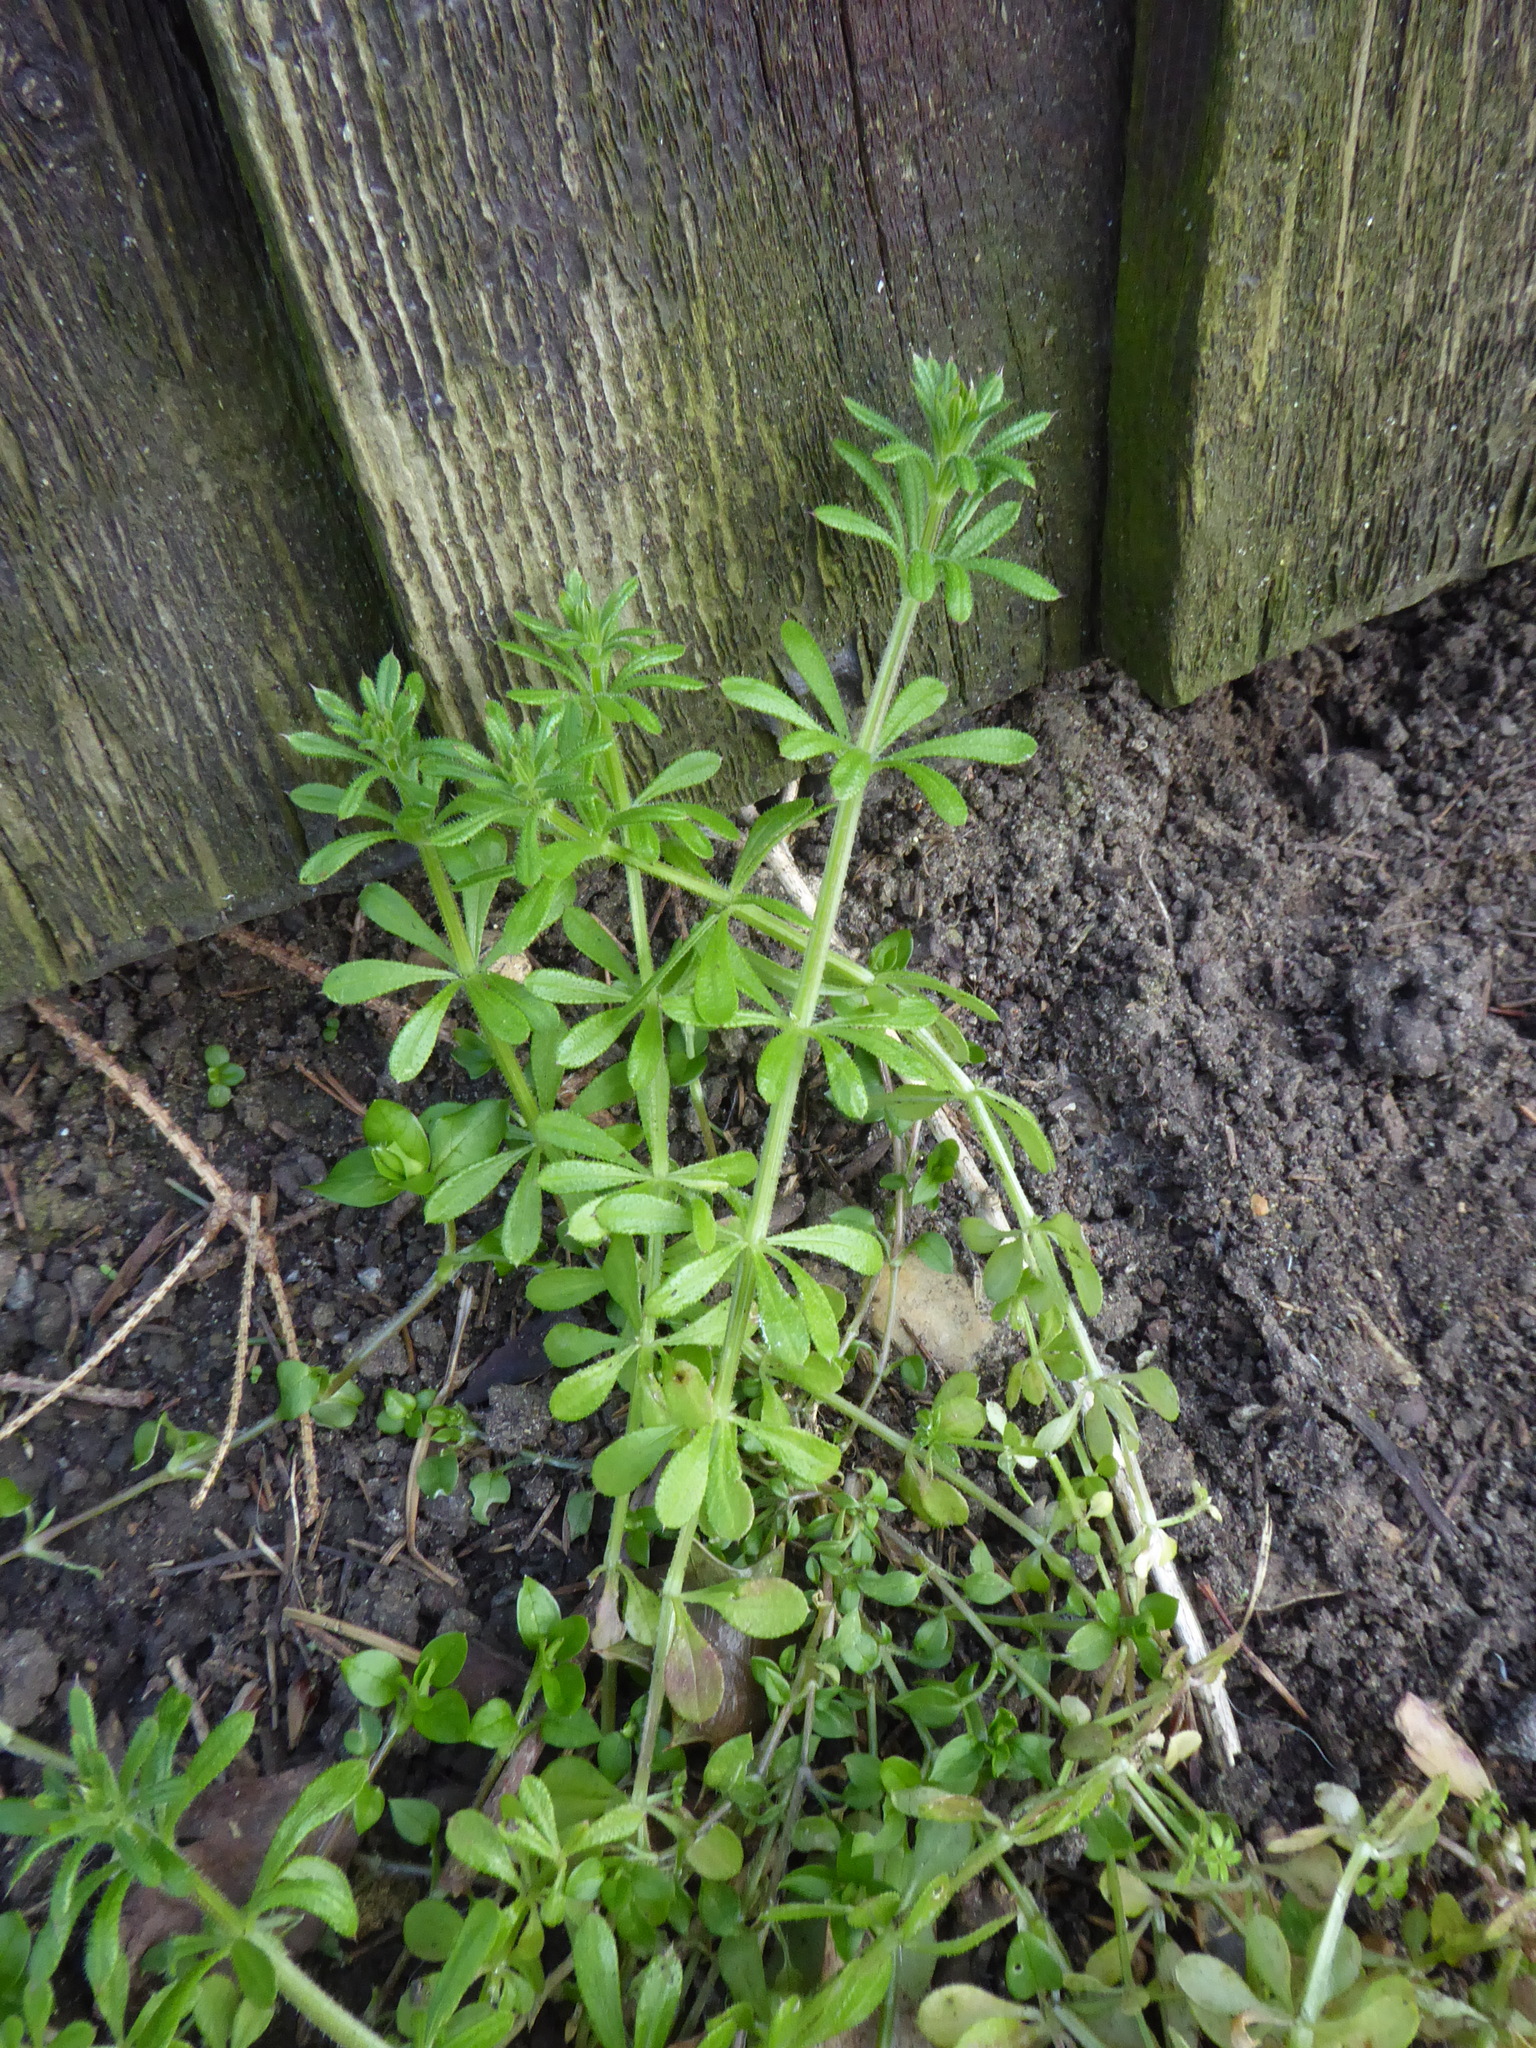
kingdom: Plantae
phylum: Tracheophyta
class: Magnoliopsida
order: Gentianales
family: Rubiaceae
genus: Galium
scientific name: Galium aparine
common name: Cleavers
